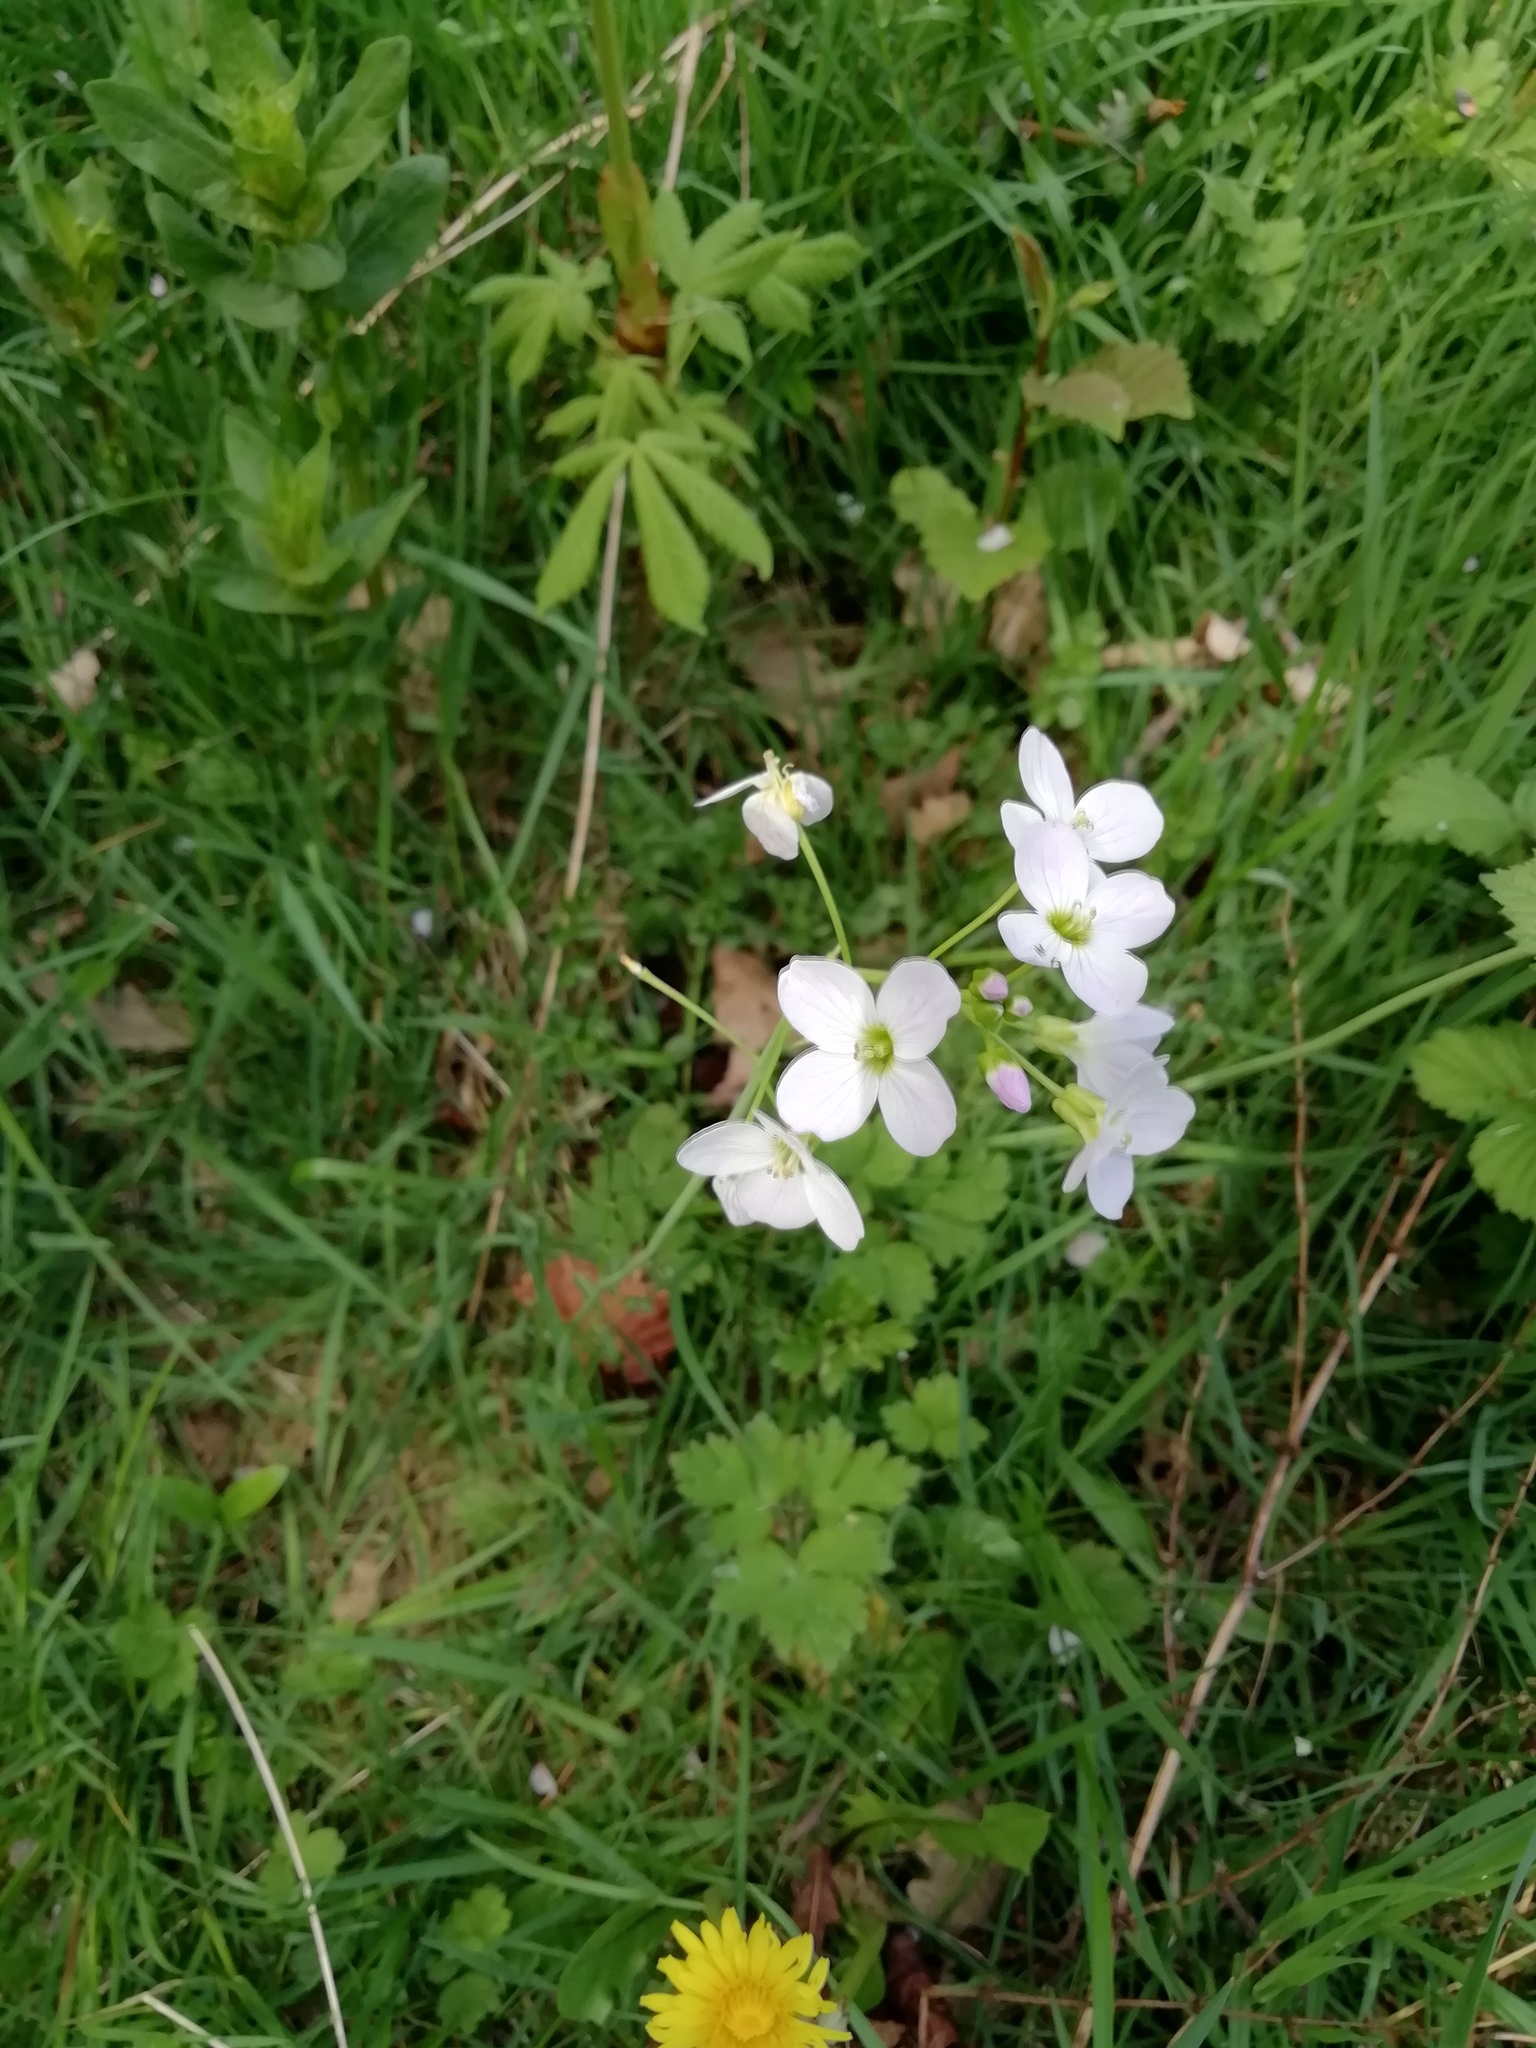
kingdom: Plantae
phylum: Tracheophyta
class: Magnoliopsida
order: Brassicales
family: Brassicaceae
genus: Cardamine
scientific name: Cardamine pratensis
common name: Cuckoo flower
